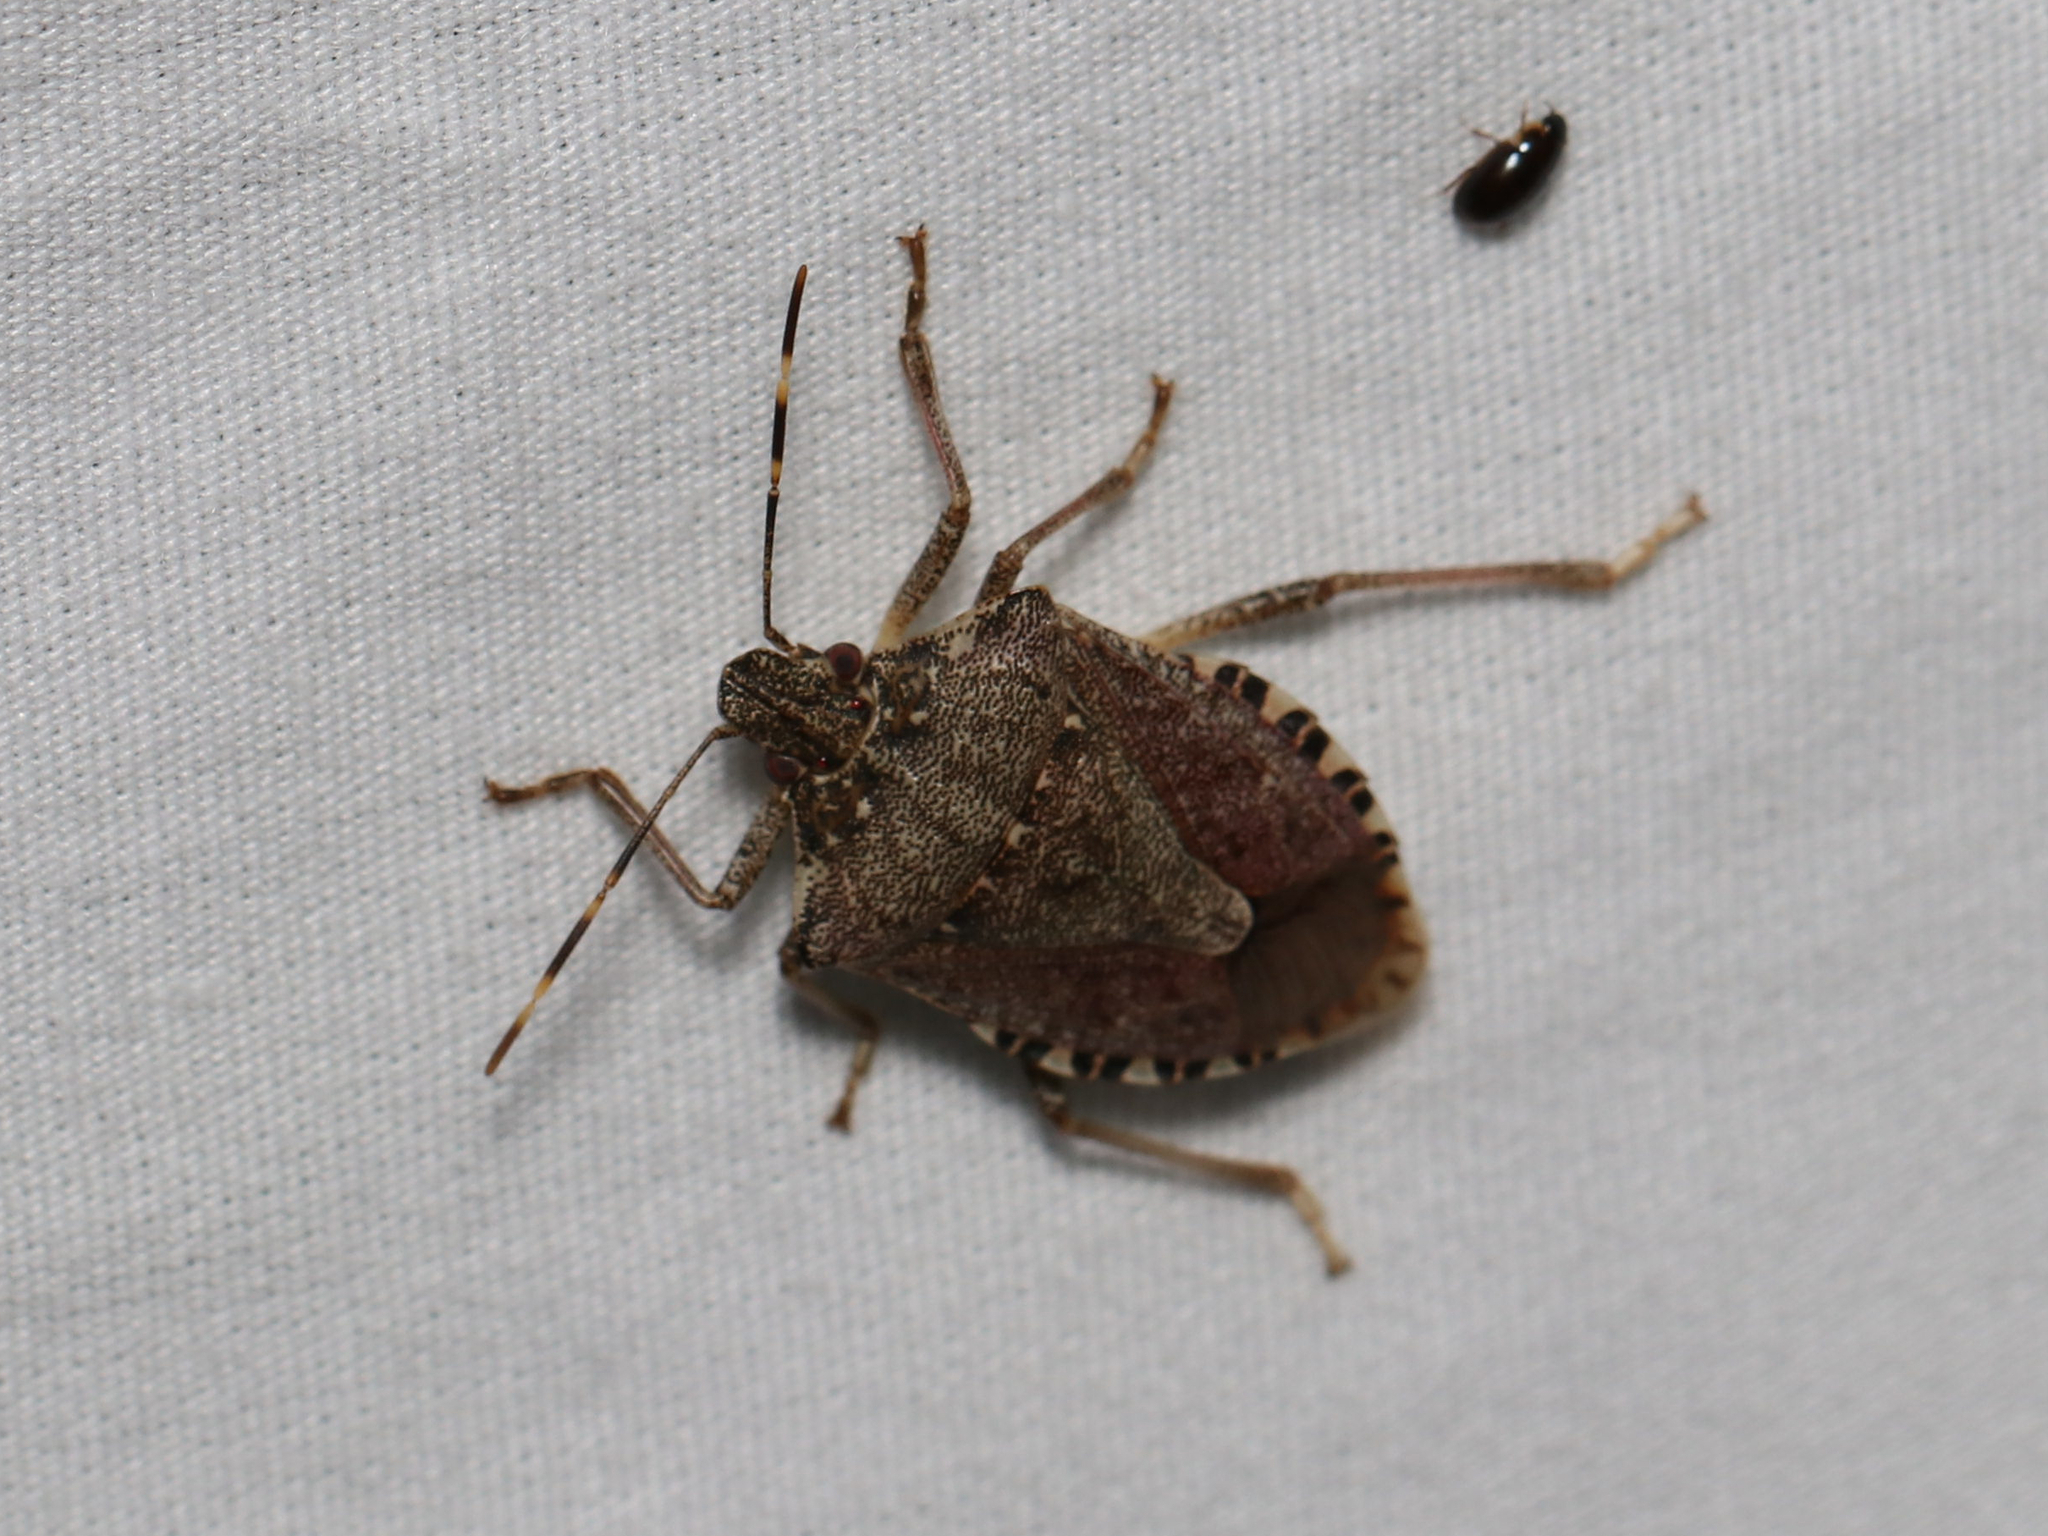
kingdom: Animalia
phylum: Arthropoda
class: Insecta
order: Hemiptera
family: Pentatomidae
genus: Halyomorpha
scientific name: Halyomorpha halys
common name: Brown marmorated stink bug
